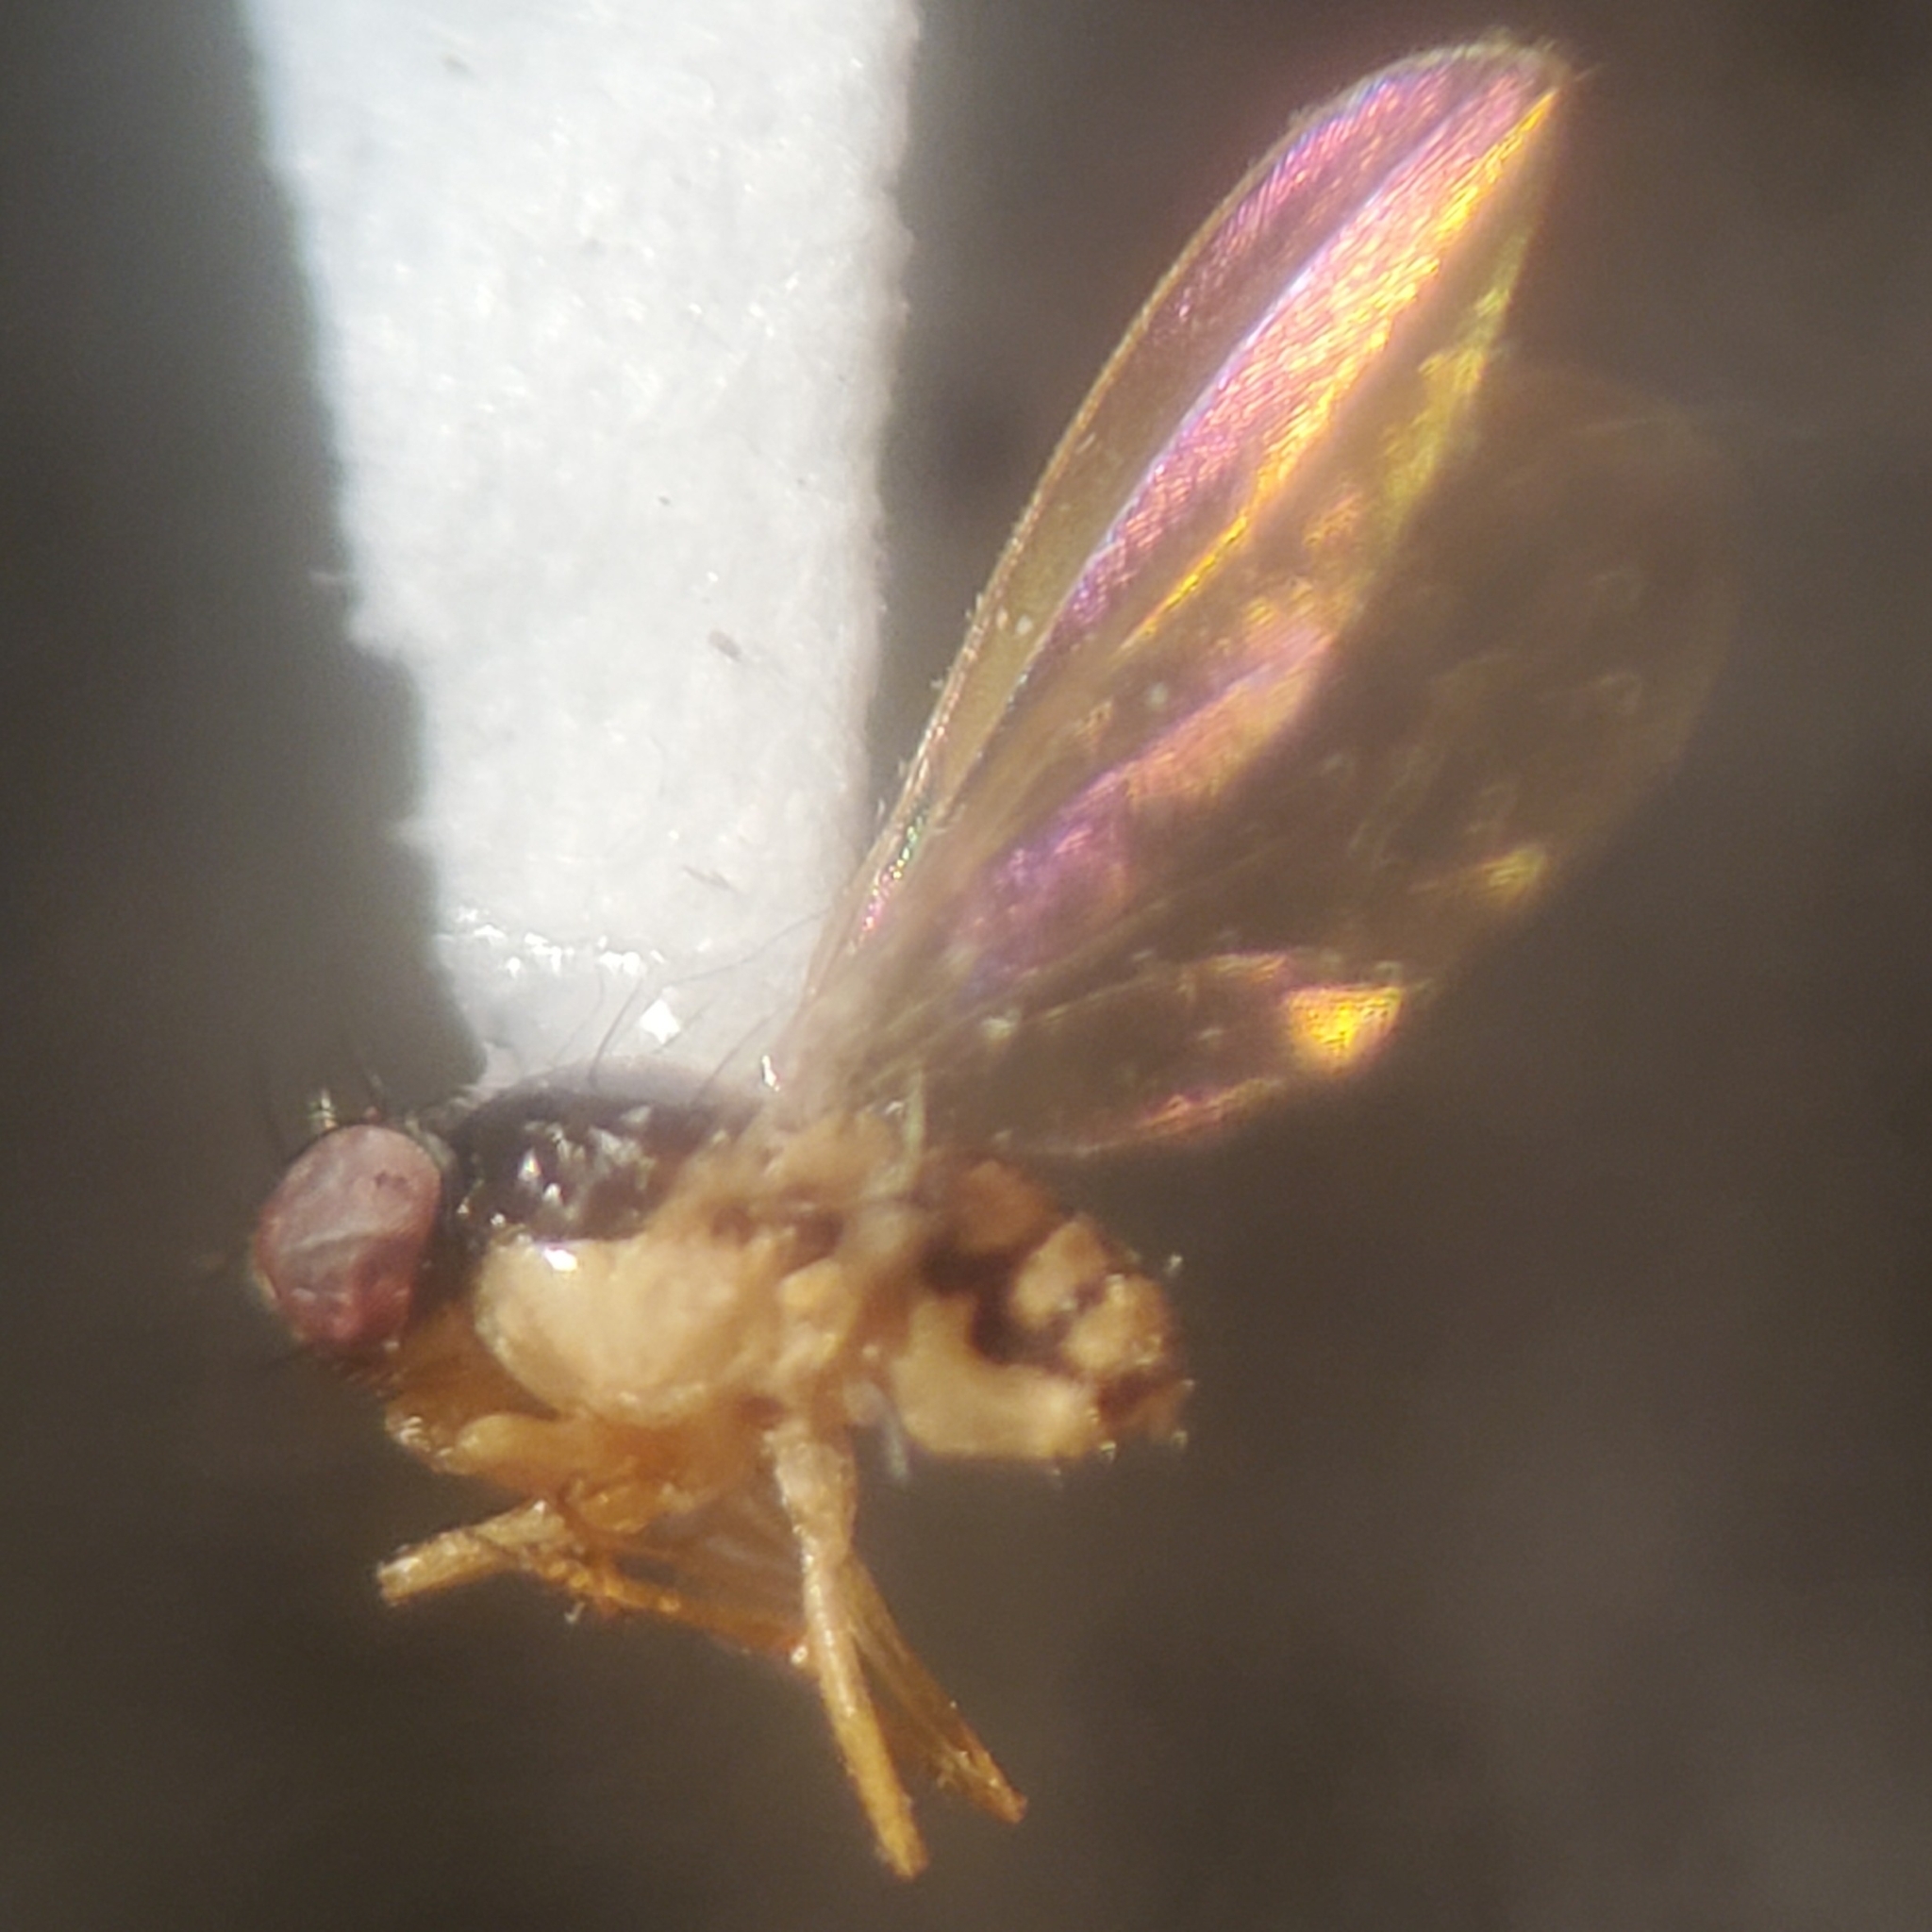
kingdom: Animalia
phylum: Arthropoda
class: Insecta
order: Diptera
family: Asteiidae
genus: Asteia
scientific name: Asteia beata
